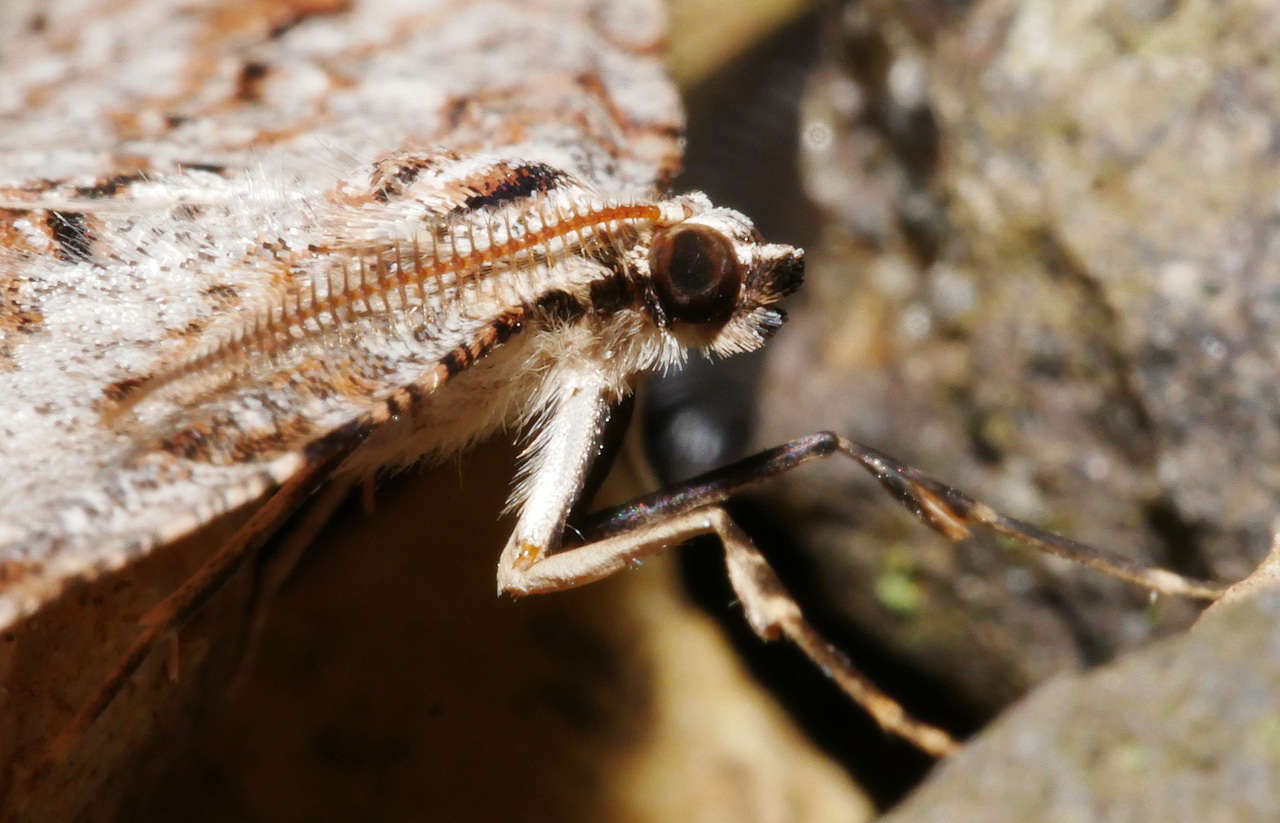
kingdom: Animalia
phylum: Arthropoda
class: Insecta
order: Lepidoptera
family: Geometridae
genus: Didymoctenia
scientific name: Didymoctenia exsuperata
